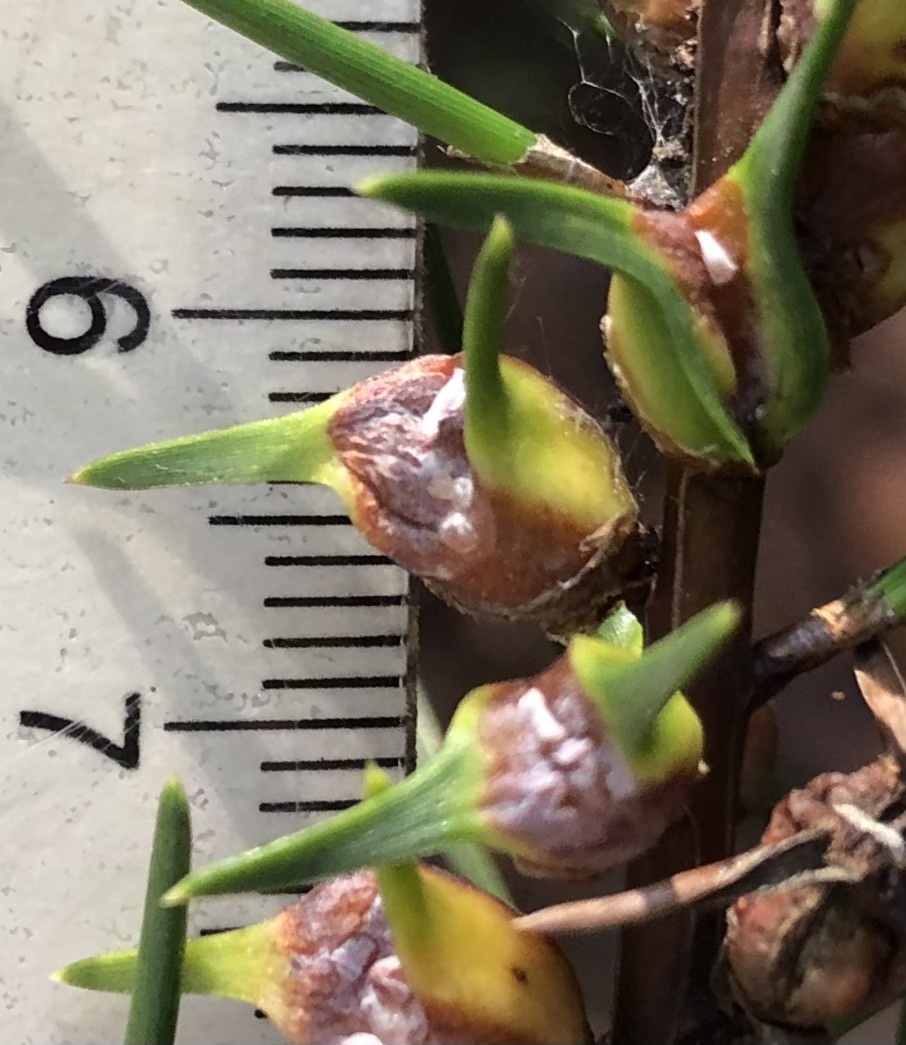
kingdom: Animalia
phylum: Arthropoda
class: Insecta
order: Diptera
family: Cecidomyiidae
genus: Thecodiplosis
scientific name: Thecodiplosis brachynteroides
